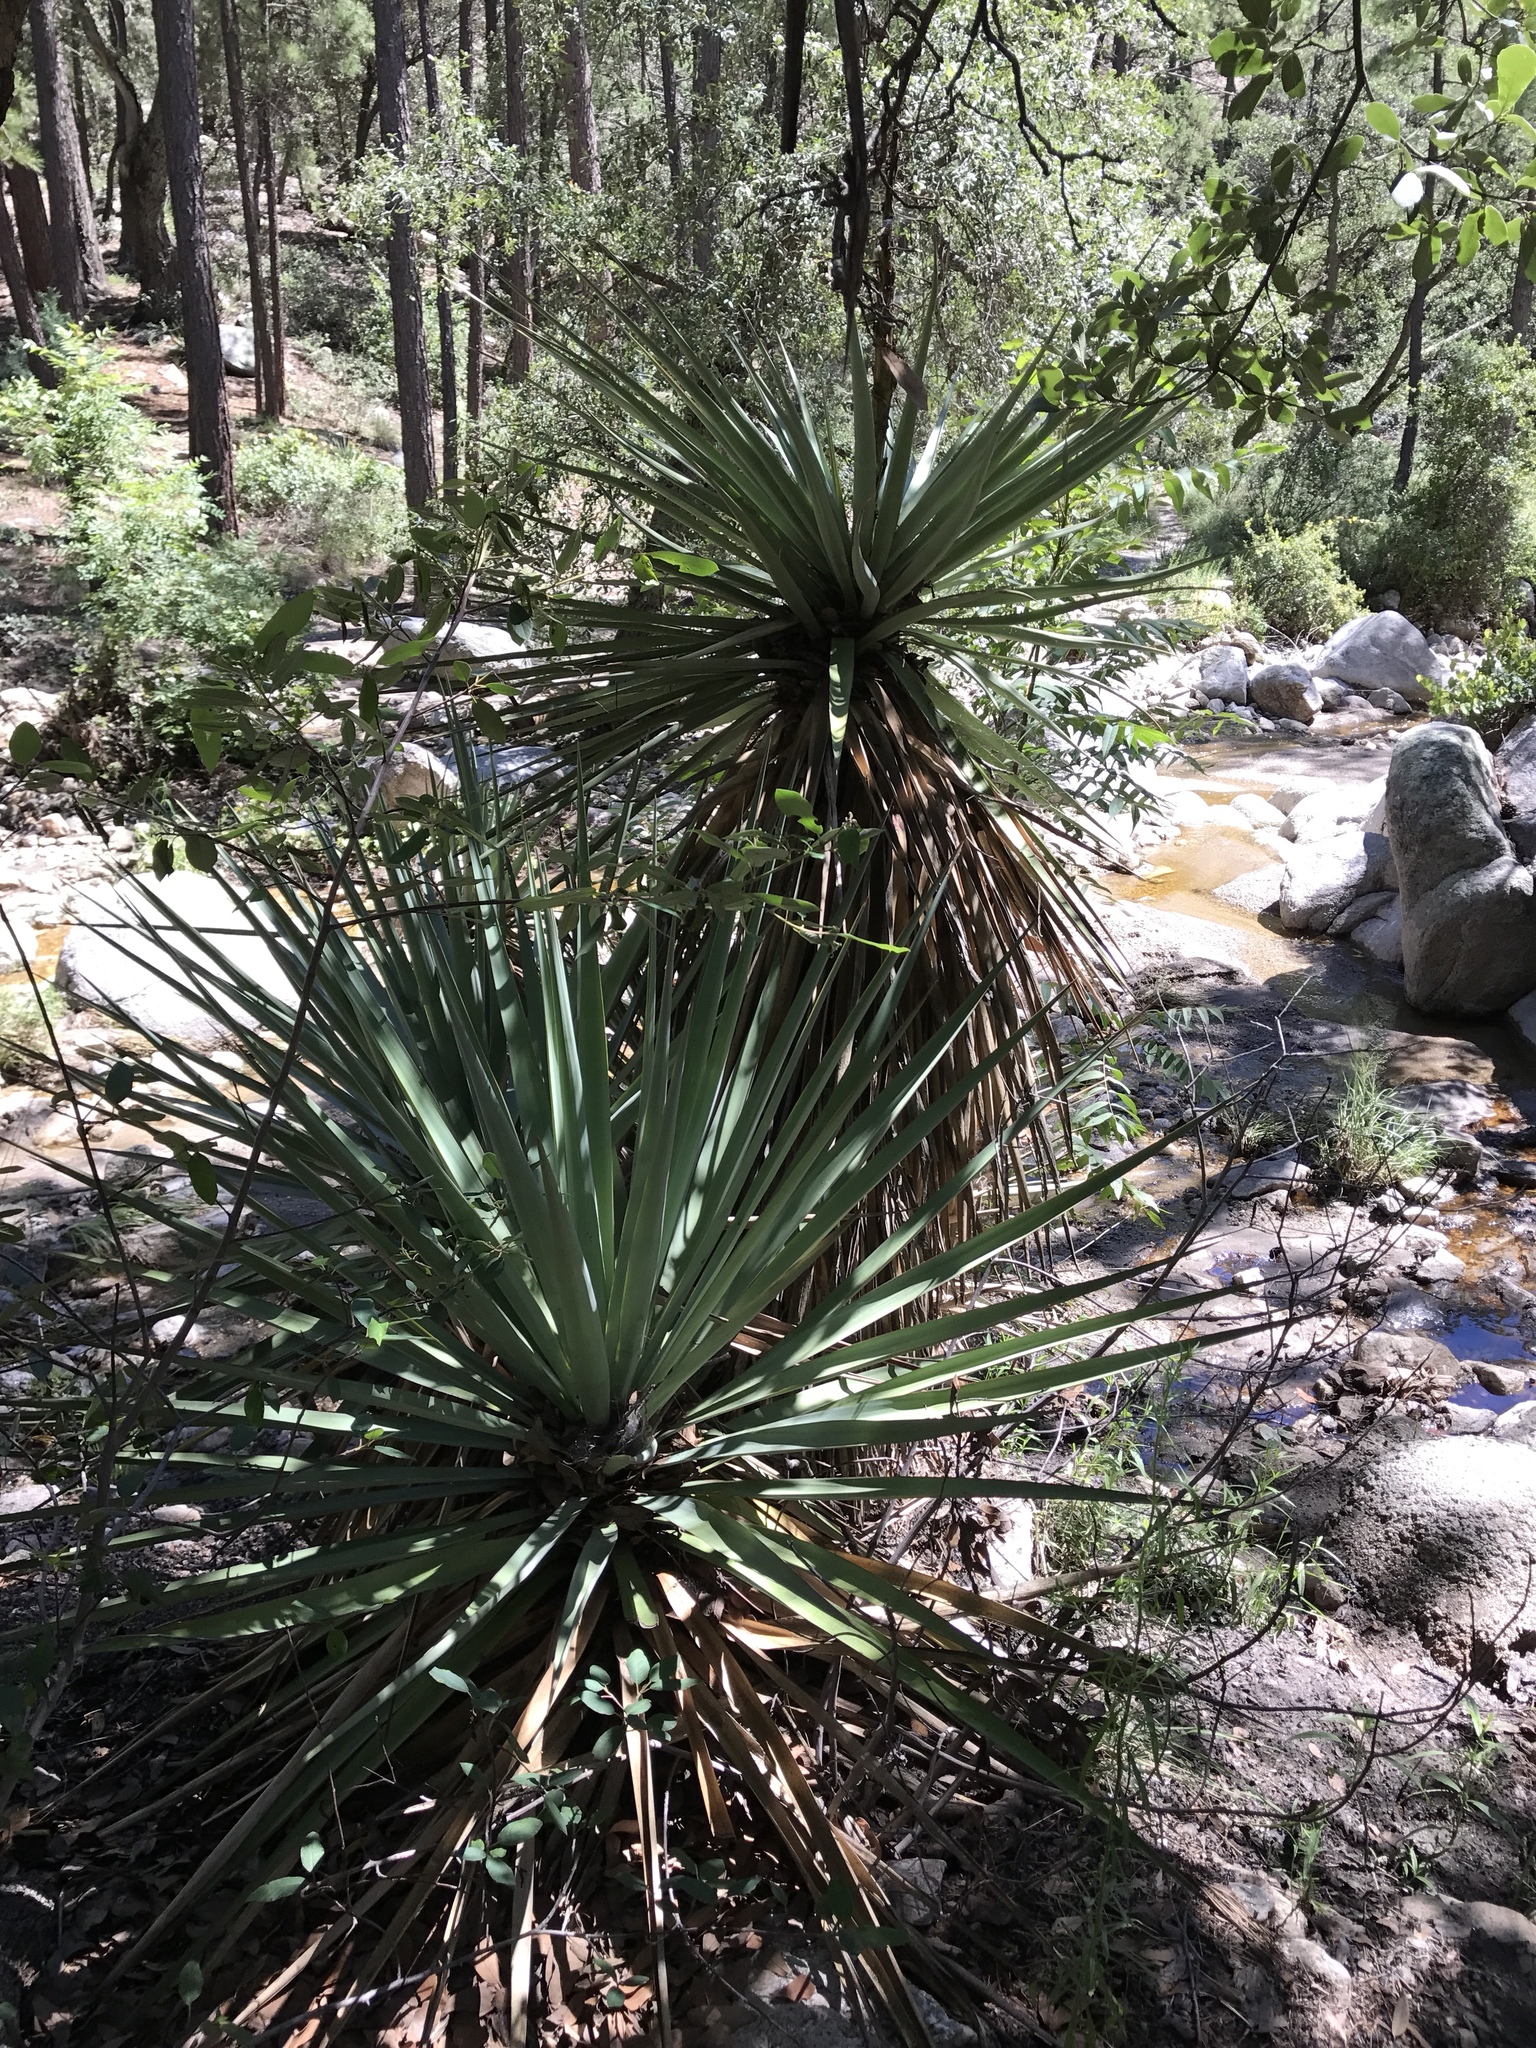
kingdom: Plantae
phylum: Tracheophyta
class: Liliopsida
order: Asparagales
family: Asparagaceae
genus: Yucca
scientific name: Yucca schottii
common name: Hoary yucca
